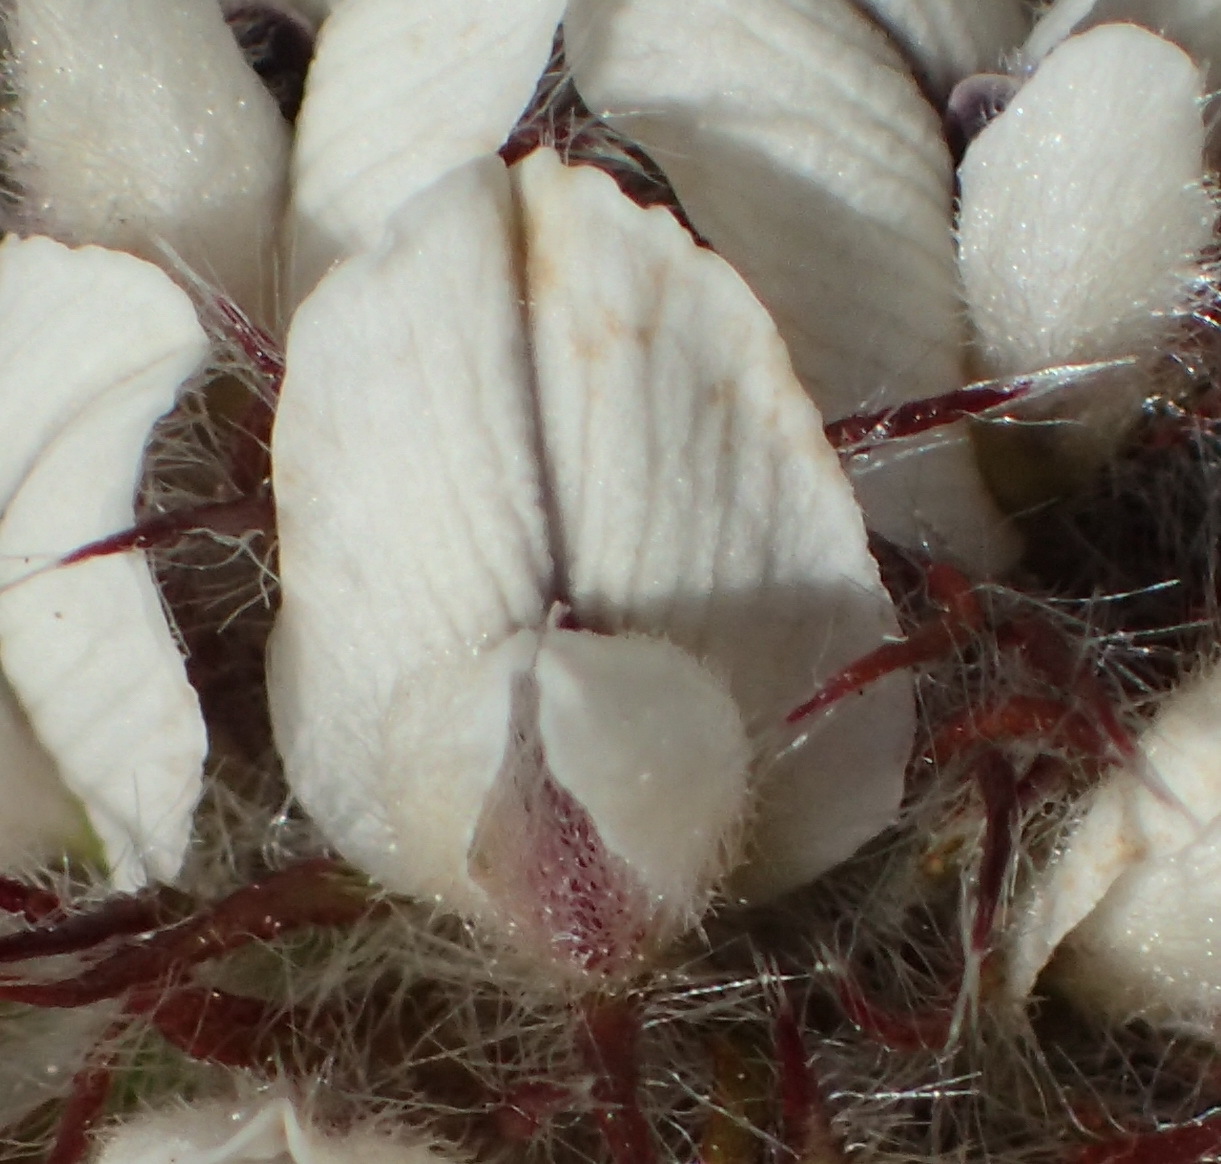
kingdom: Plantae
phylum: Tracheophyta
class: Magnoliopsida
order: Fabales
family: Fabaceae
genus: Aspalathus
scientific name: Aspalathus cerrhantha
